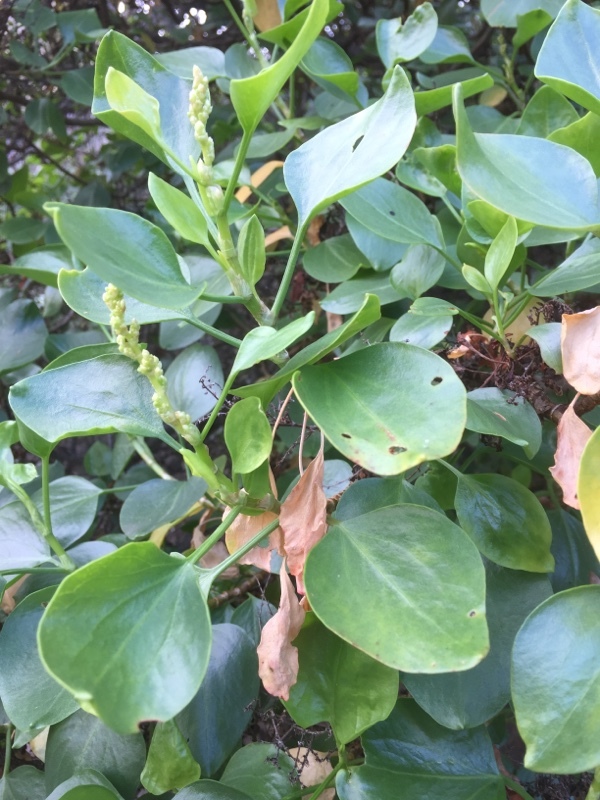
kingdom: Plantae
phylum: Tracheophyta
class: Magnoliopsida
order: Caryophyllales
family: Polygonaceae
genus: Rumex
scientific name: Rumex lunaria
